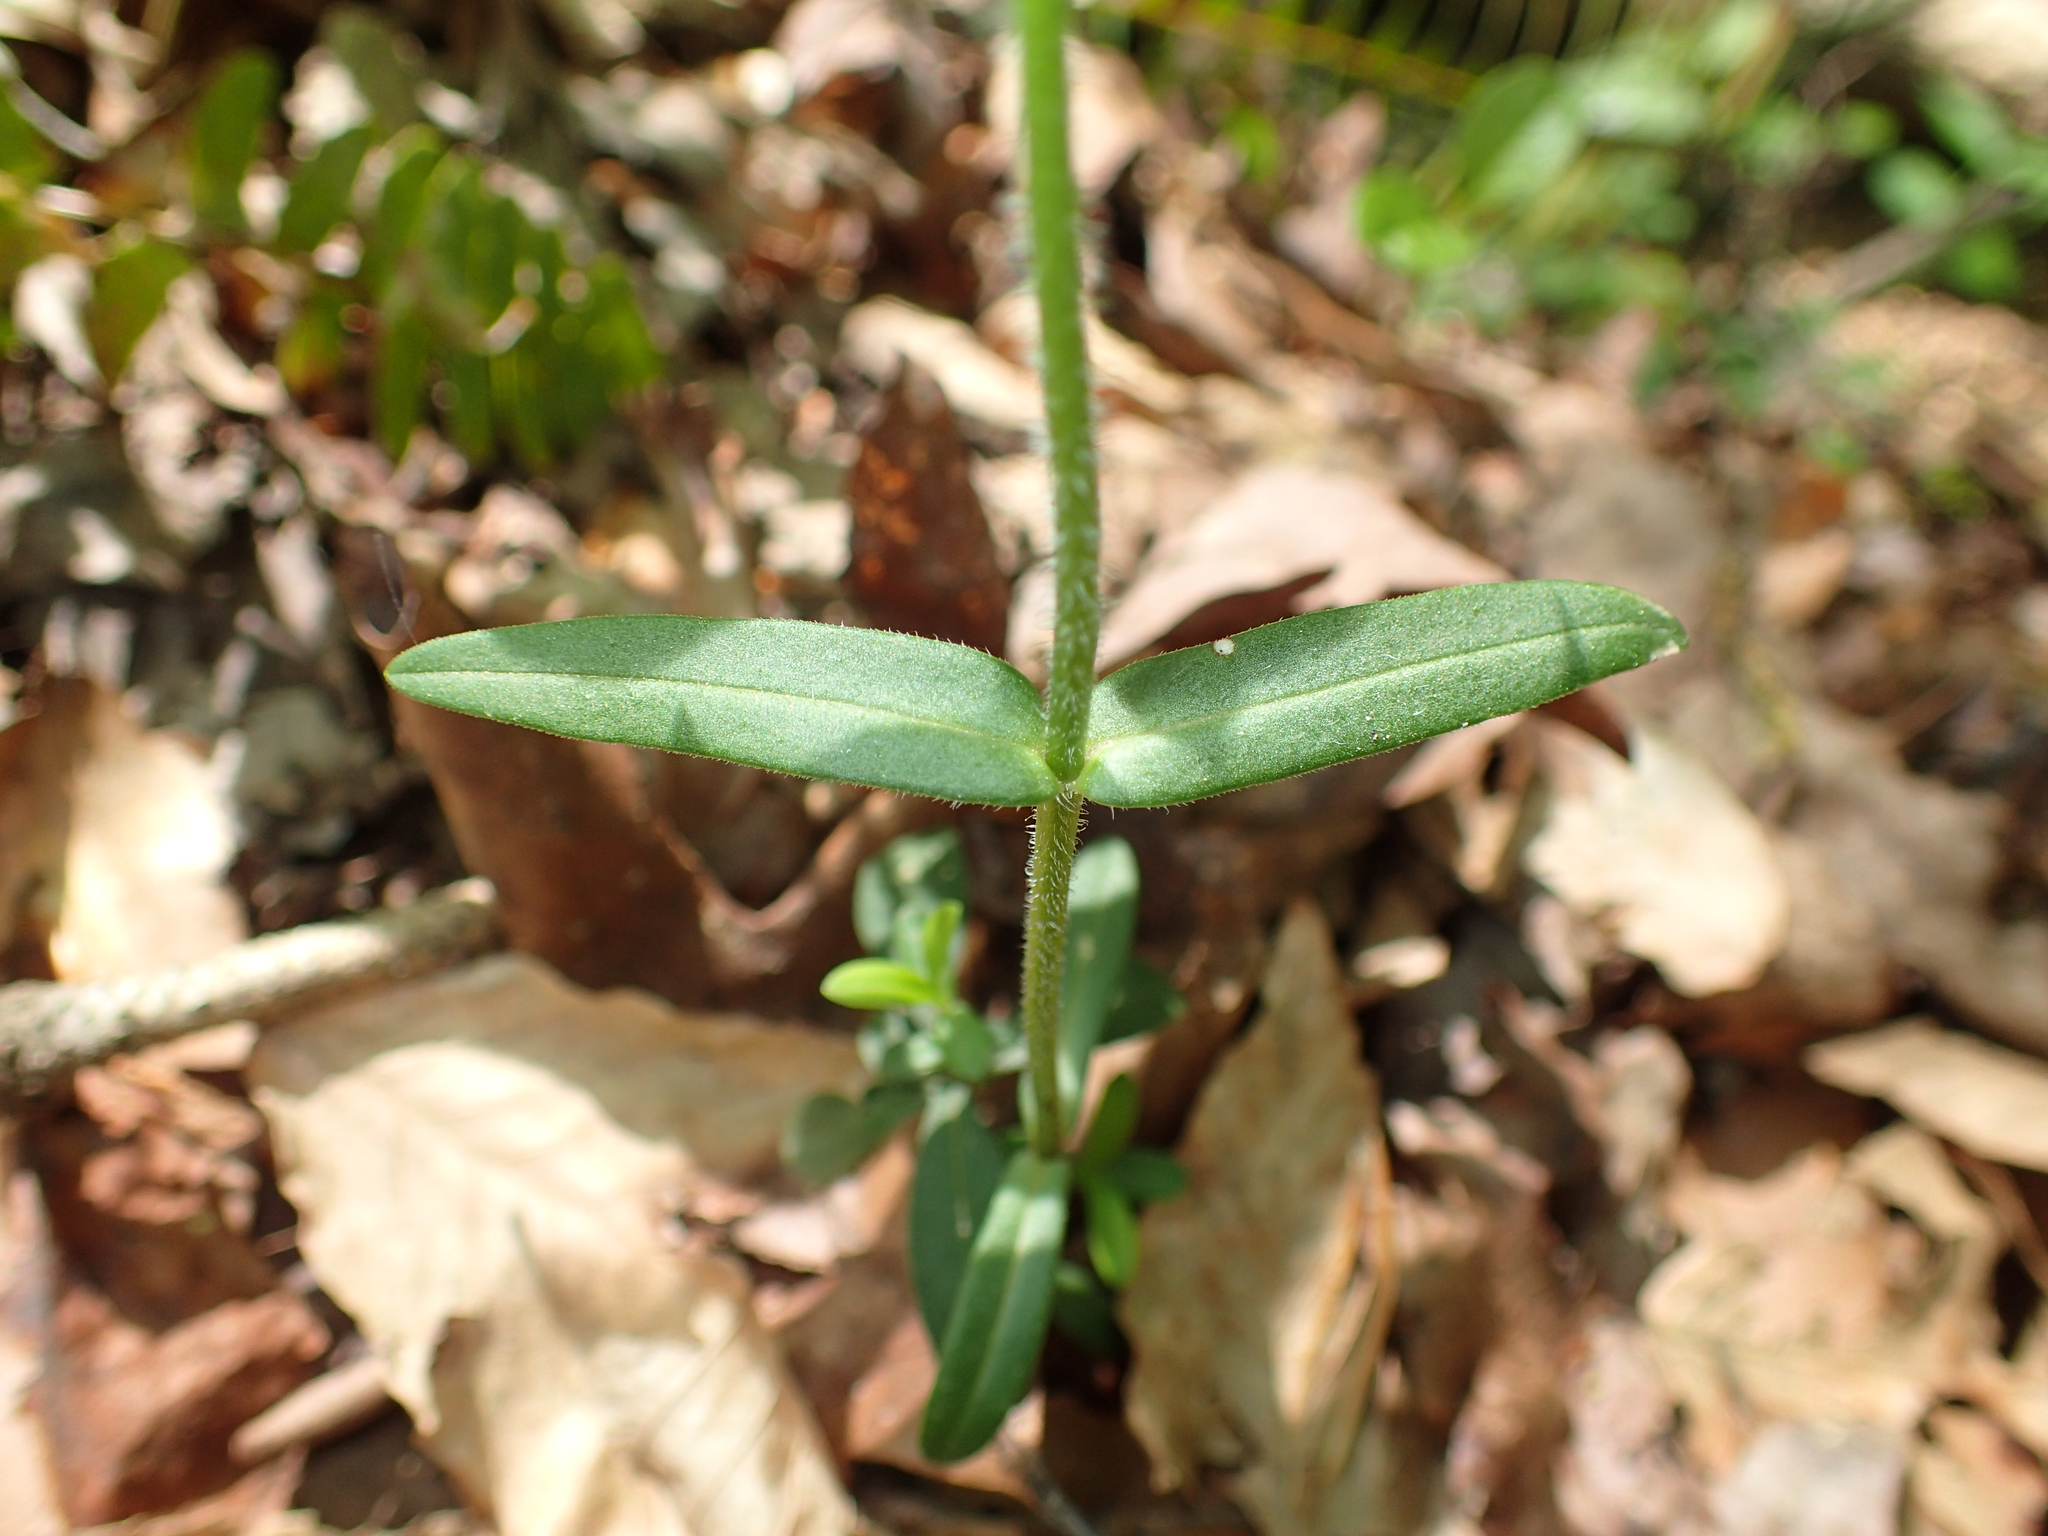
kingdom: Plantae
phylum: Tracheophyta
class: Magnoliopsida
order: Ericales
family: Polemoniaceae
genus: Phlox
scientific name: Phlox divaricata
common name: Blue phlox
